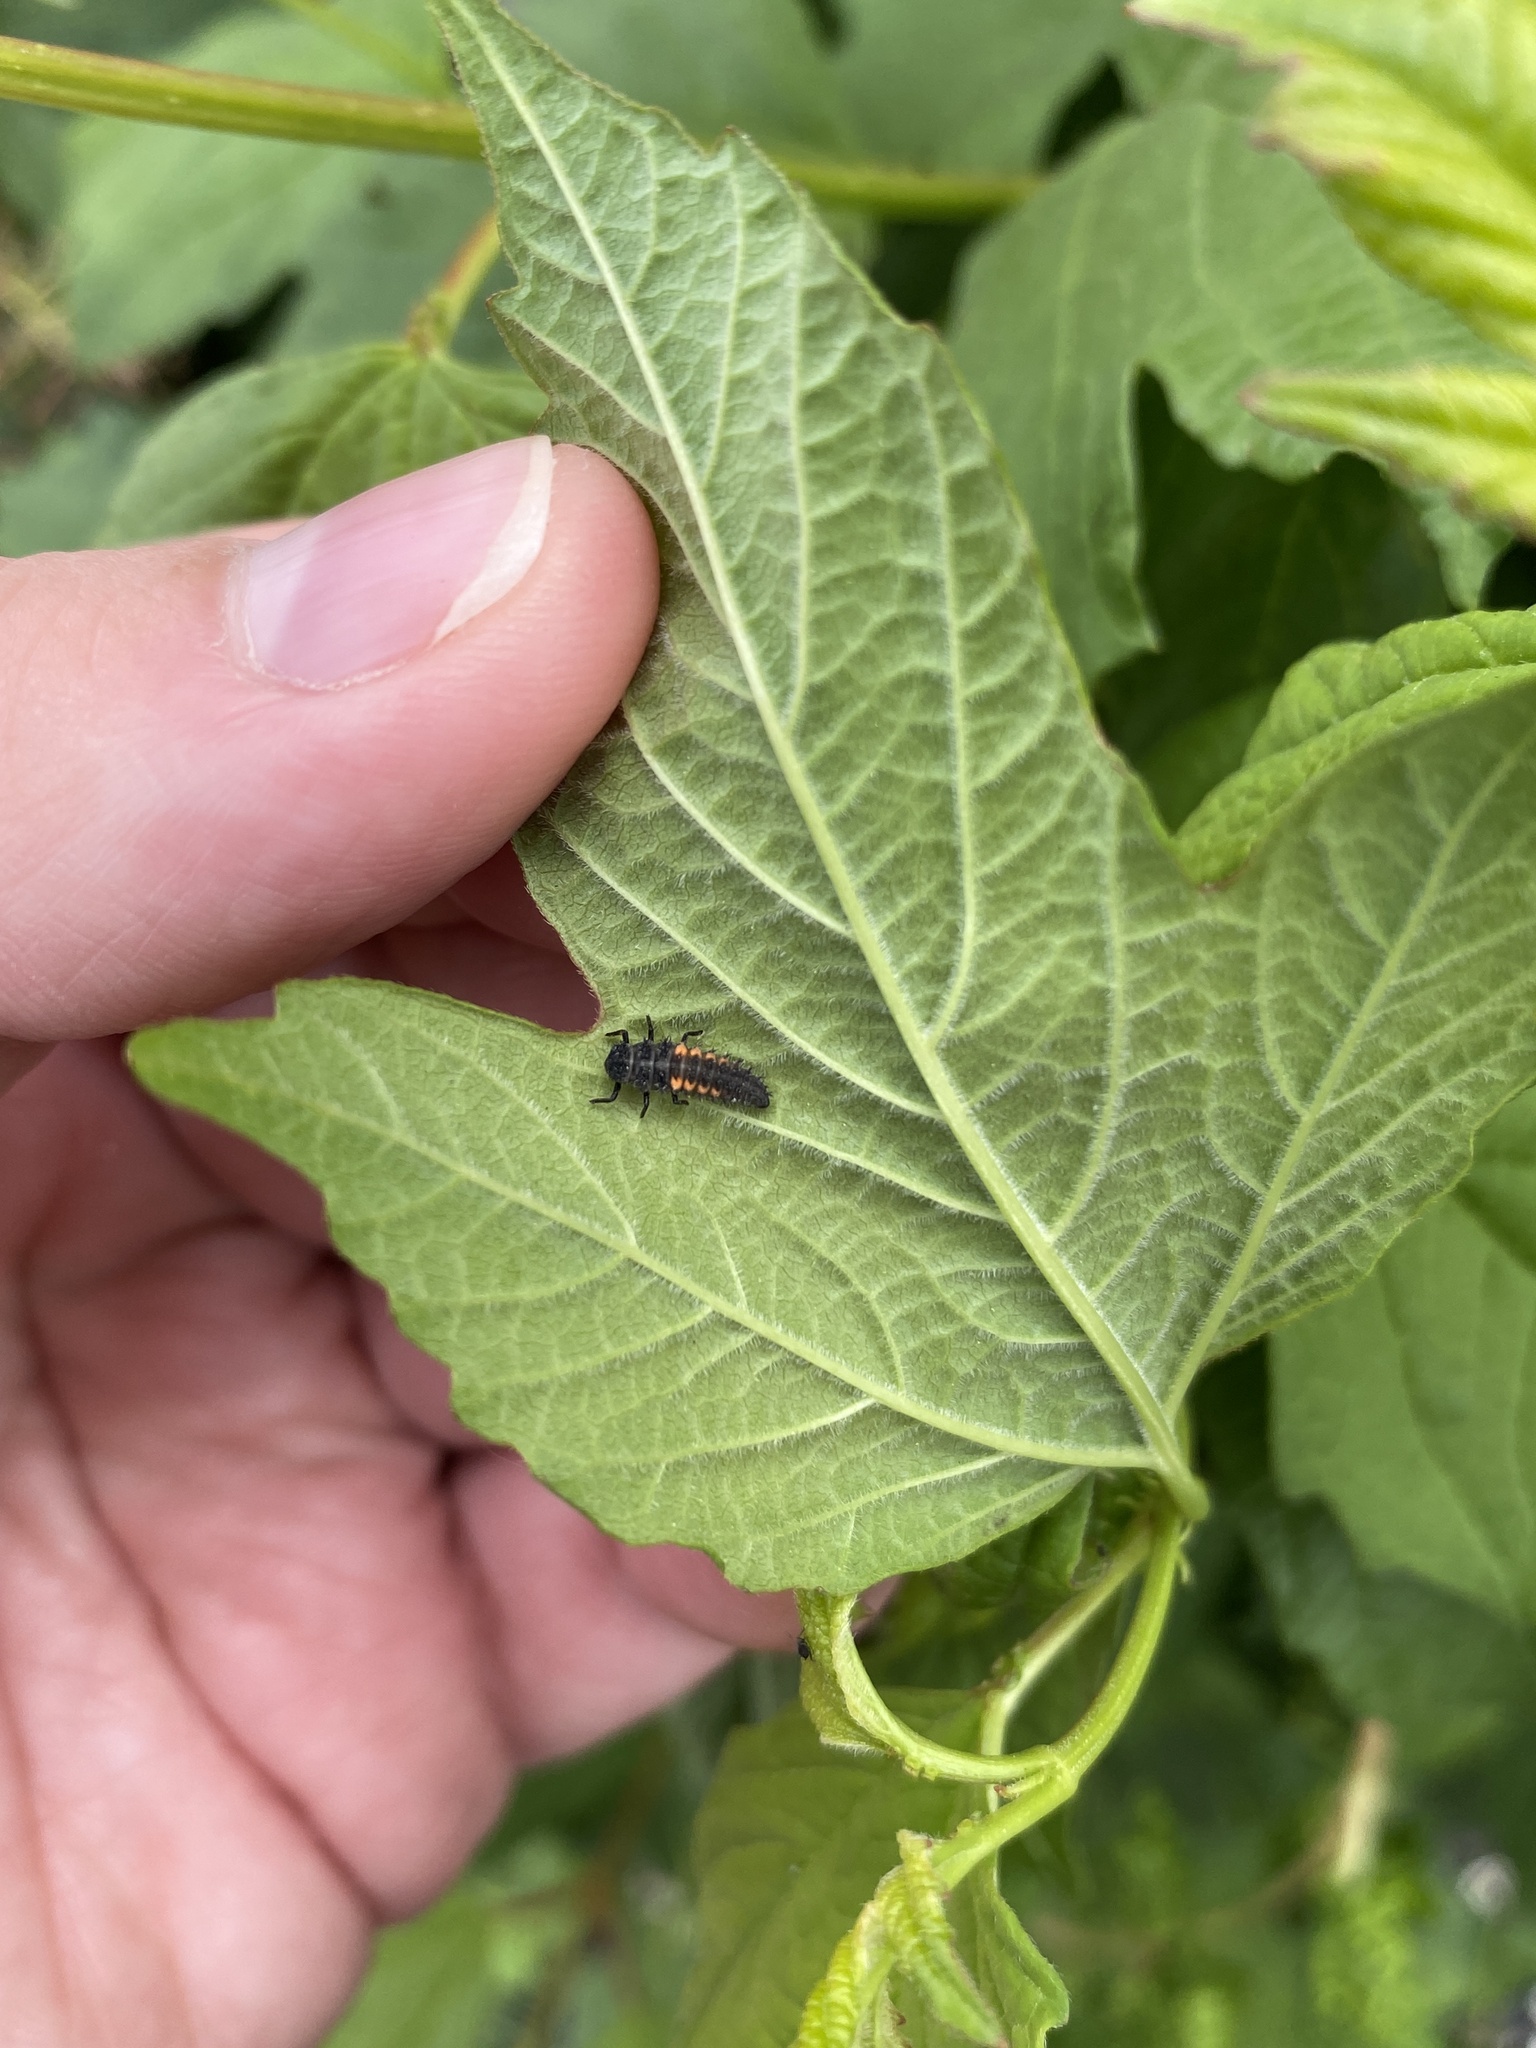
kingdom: Animalia
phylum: Arthropoda
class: Insecta
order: Coleoptera
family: Coccinellidae
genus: Harmonia
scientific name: Harmonia axyridis
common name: Harlequin ladybird
